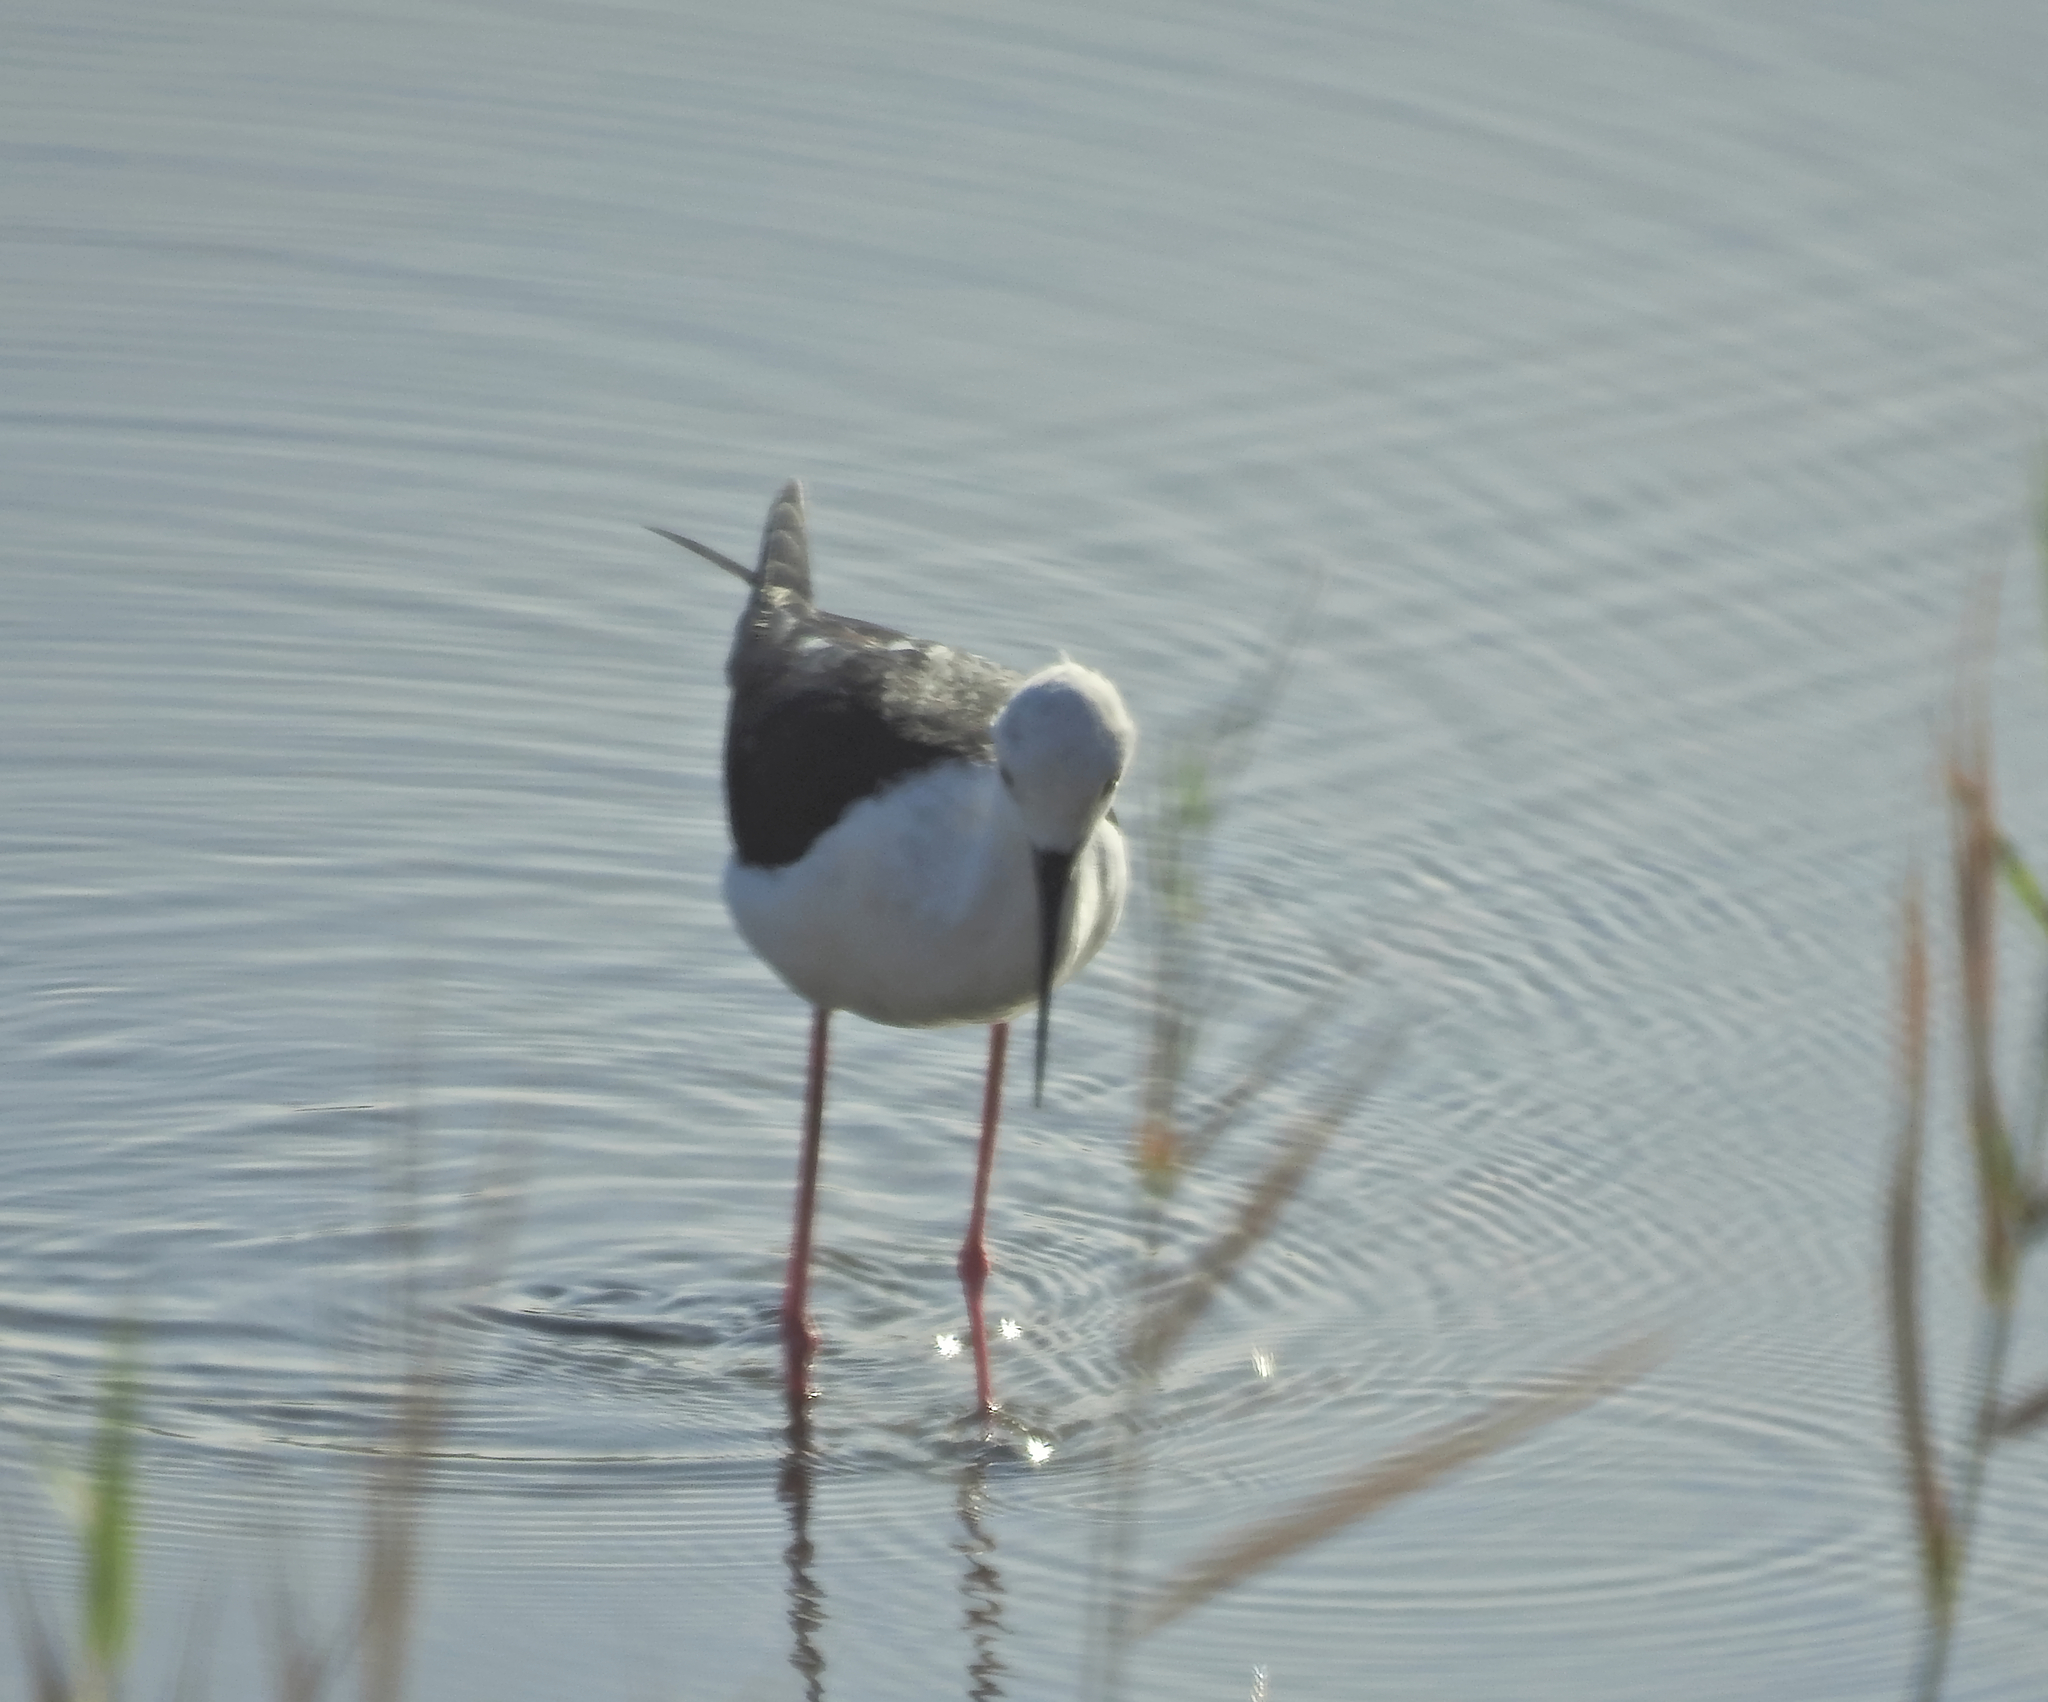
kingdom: Animalia
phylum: Chordata
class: Aves
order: Charadriiformes
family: Recurvirostridae
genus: Himantopus
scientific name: Himantopus himantopus
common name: Black-winged stilt
